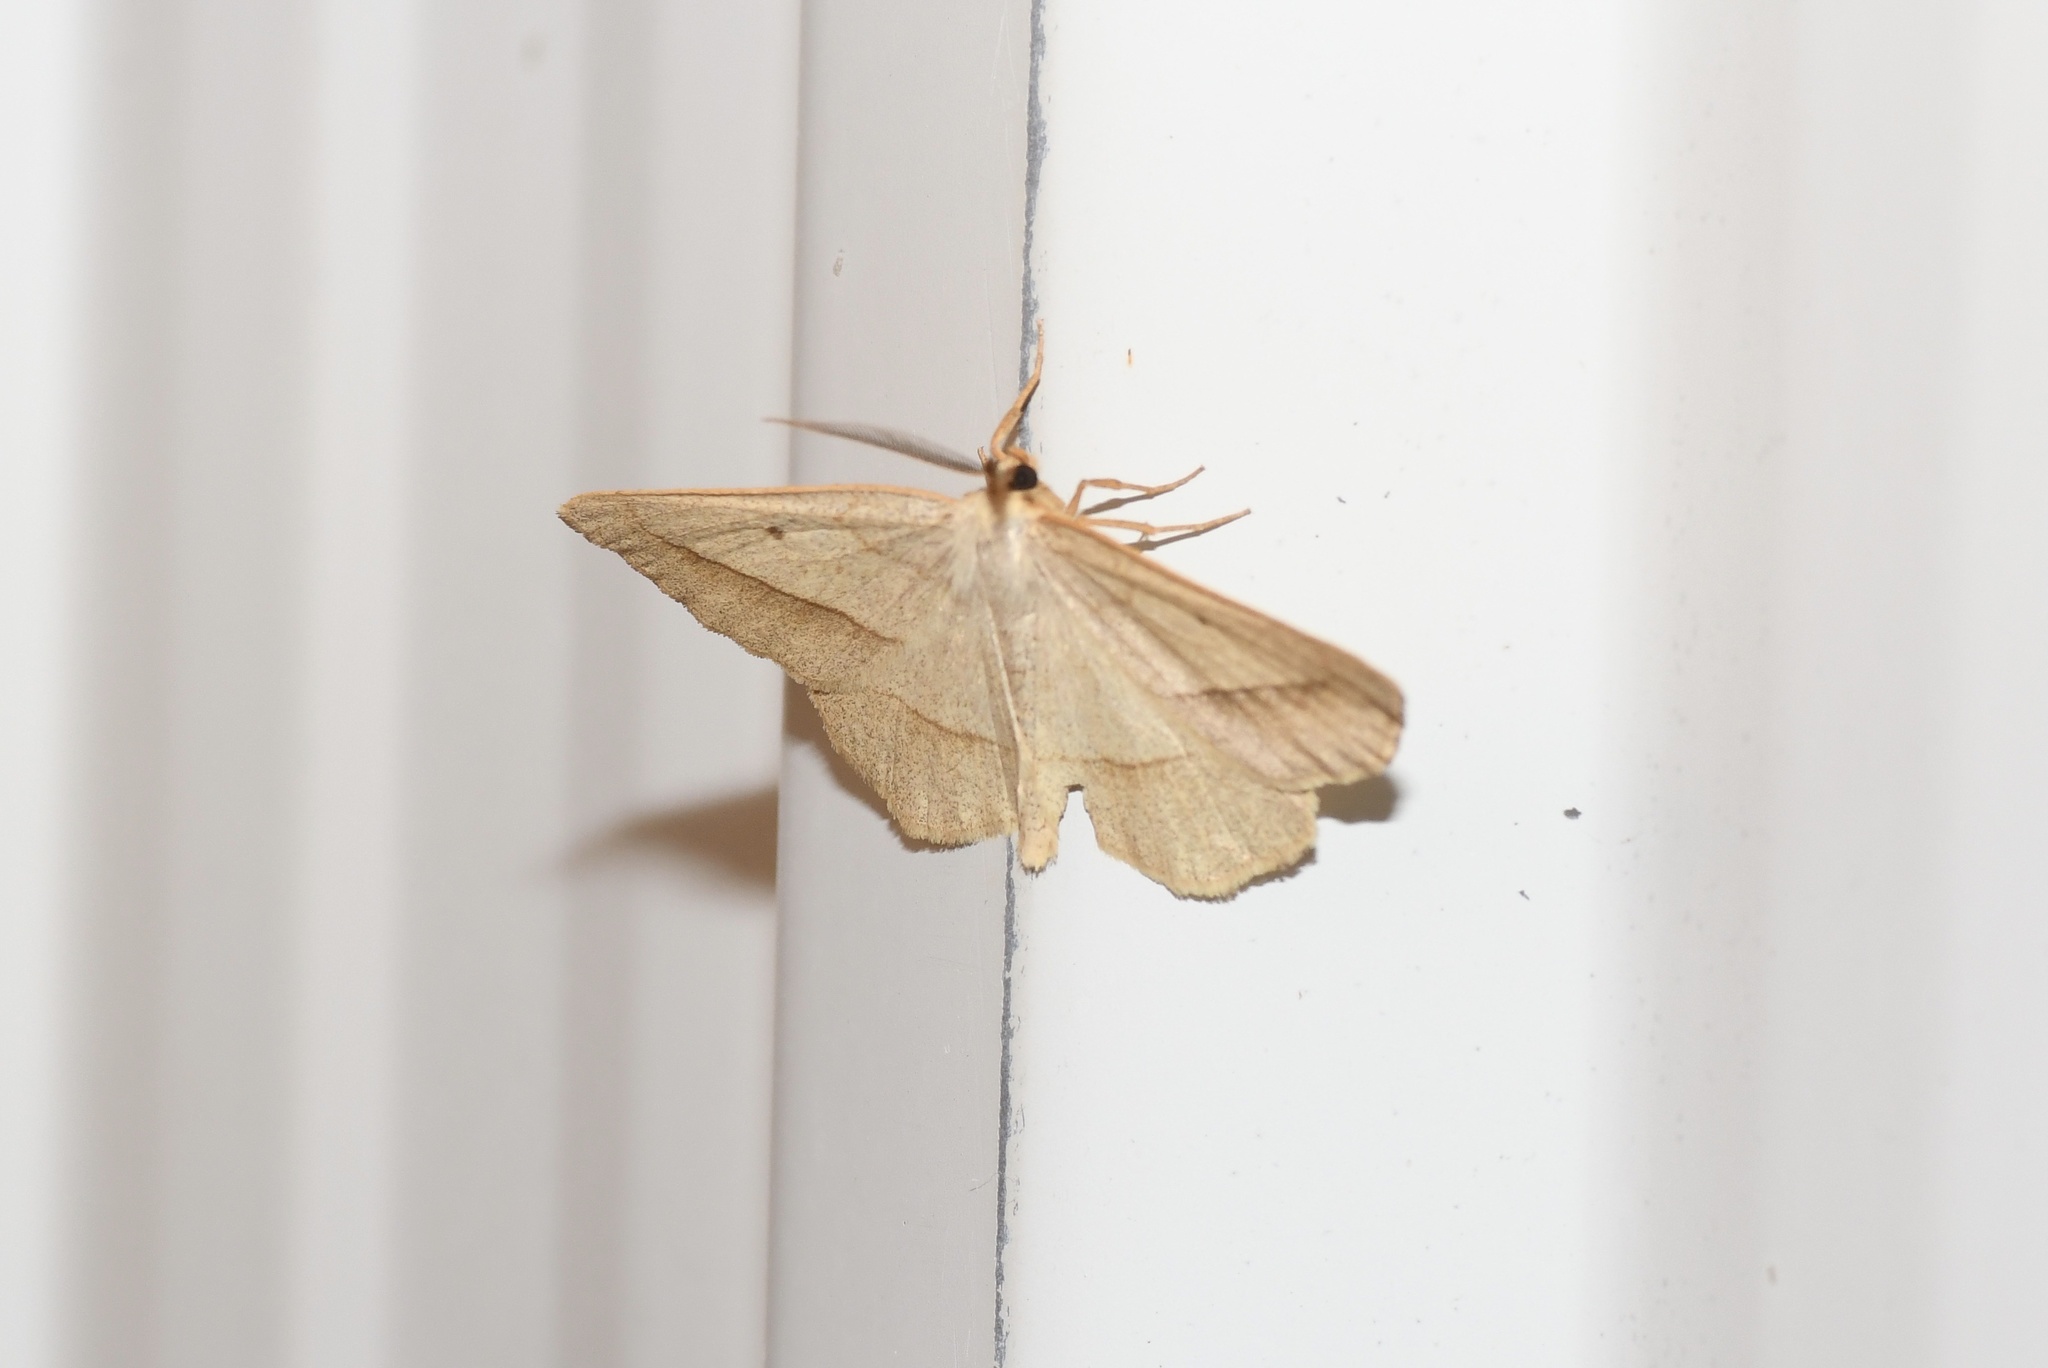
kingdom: Animalia
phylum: Arthropoda
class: Insecta
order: Lepidoptera
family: Geometridae
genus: Euchlaena
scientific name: Euchlaena irraria
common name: Least-marked euchlaena
